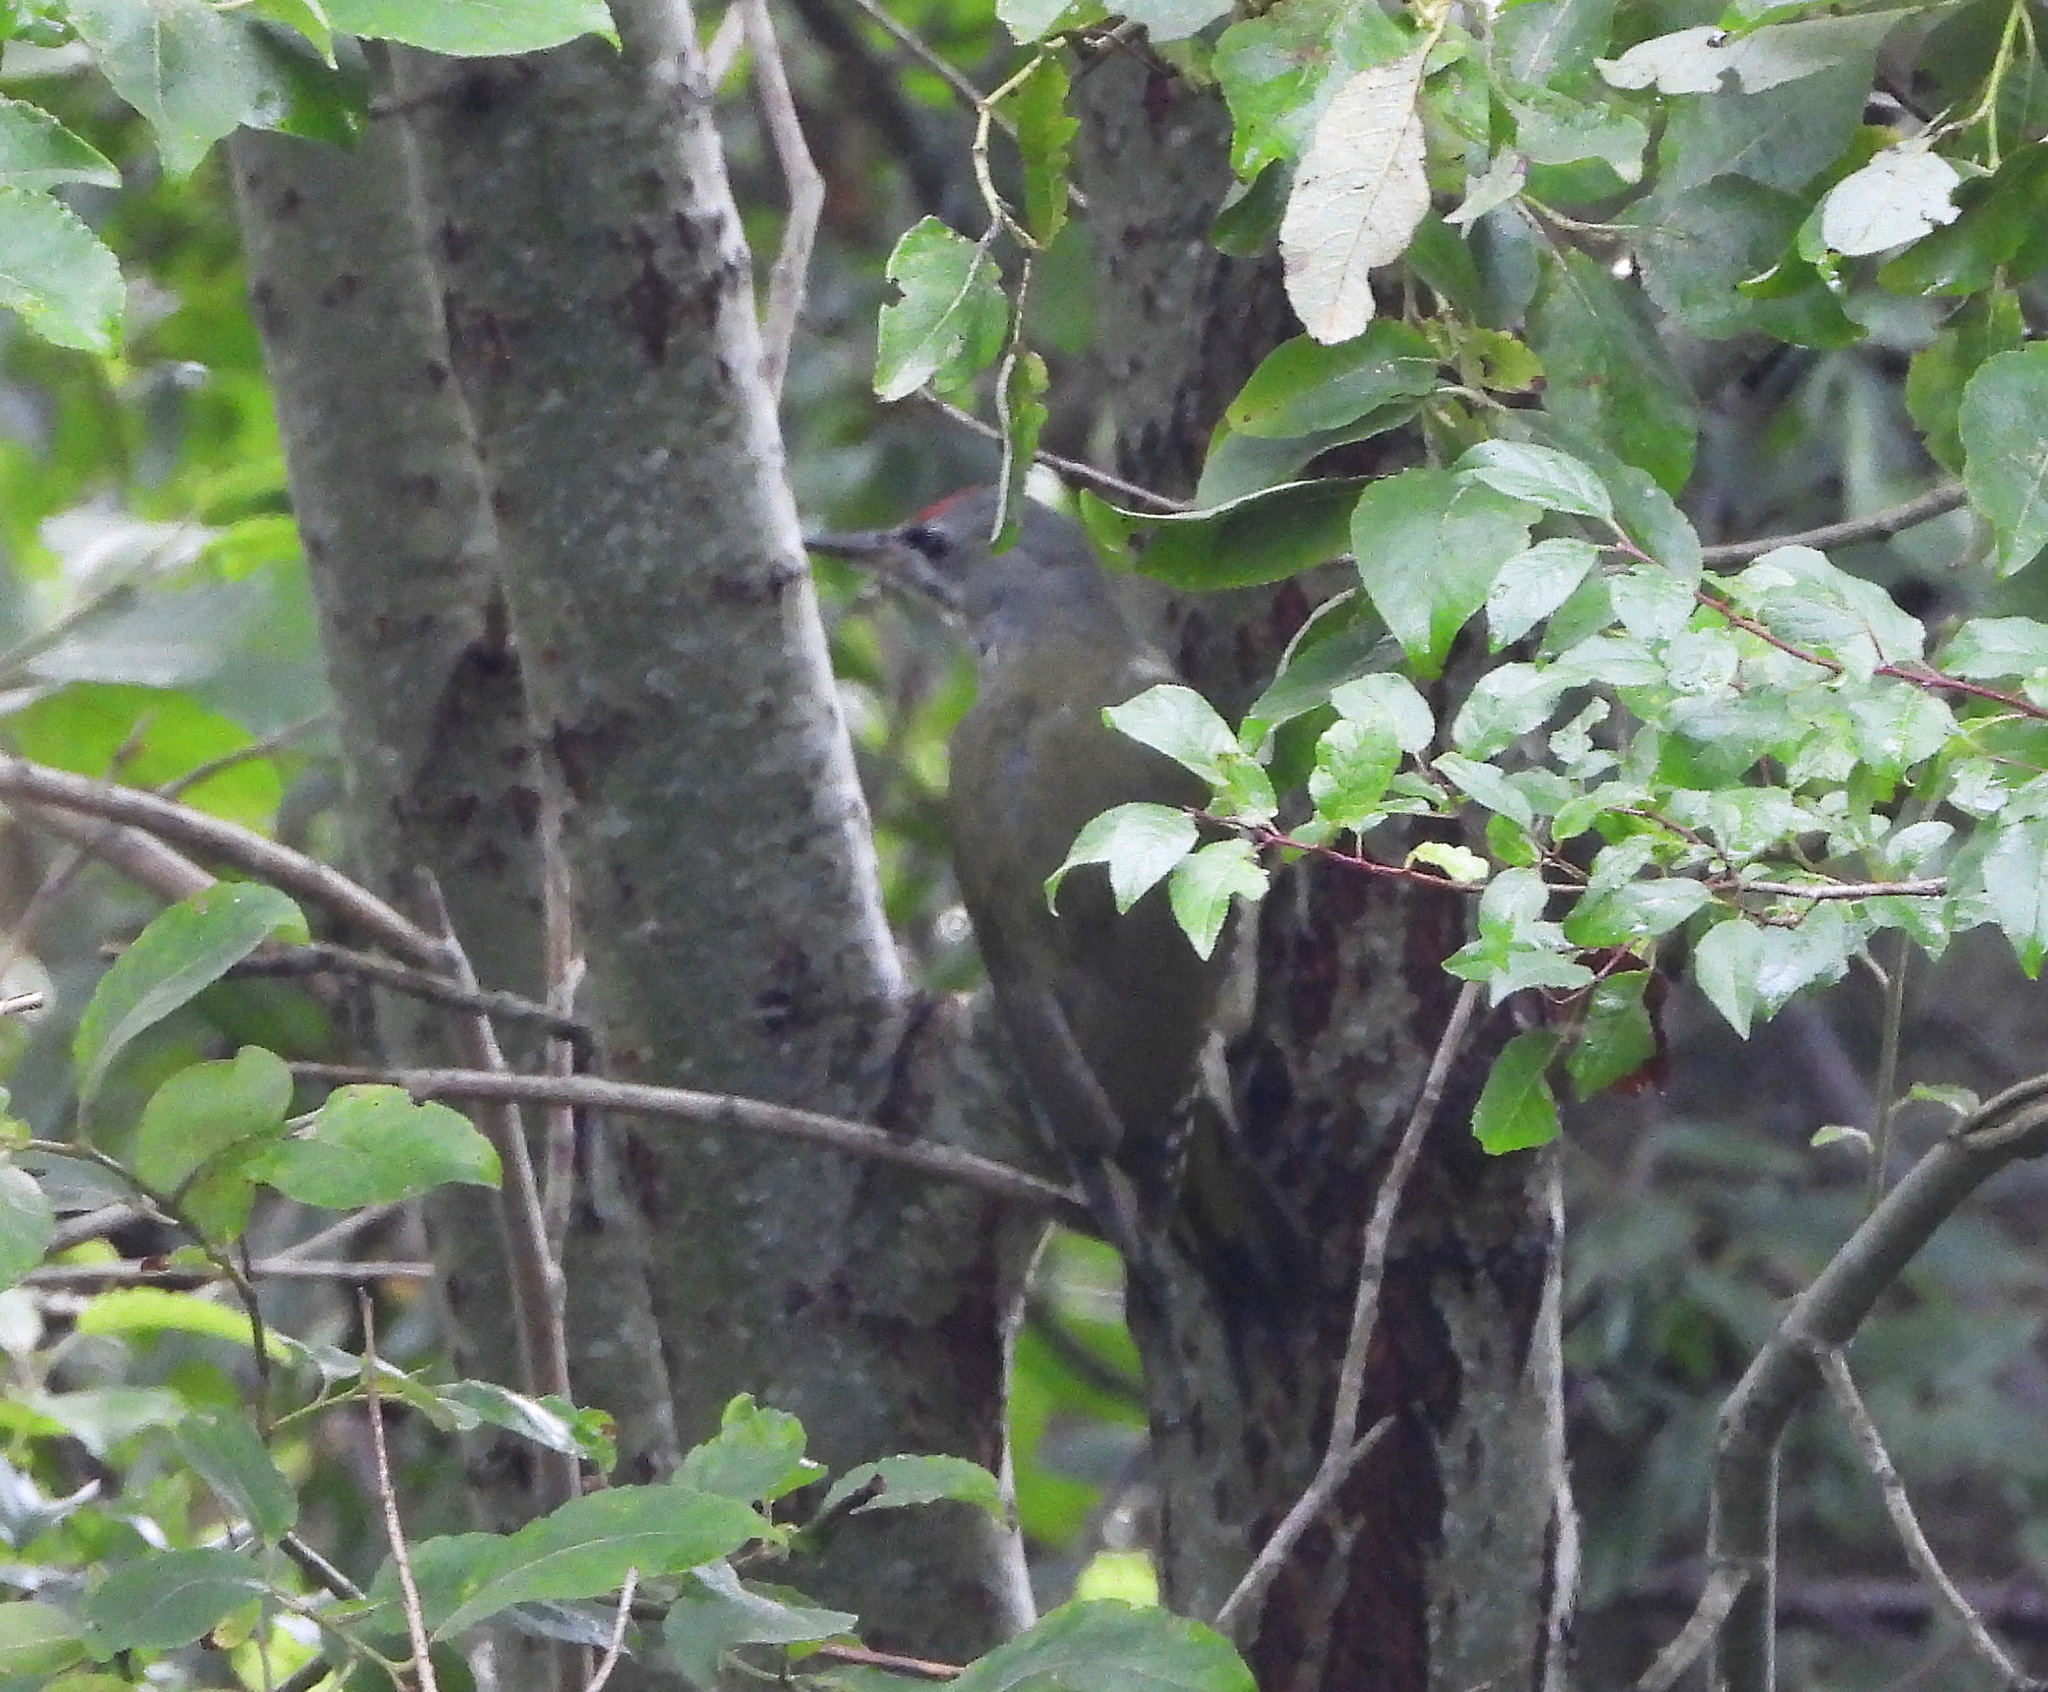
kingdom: Animalia
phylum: Chordata
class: Aves
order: Piciformes
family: Picidae
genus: Picus
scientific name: Picus canus
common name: Grey-headed woodpecker
